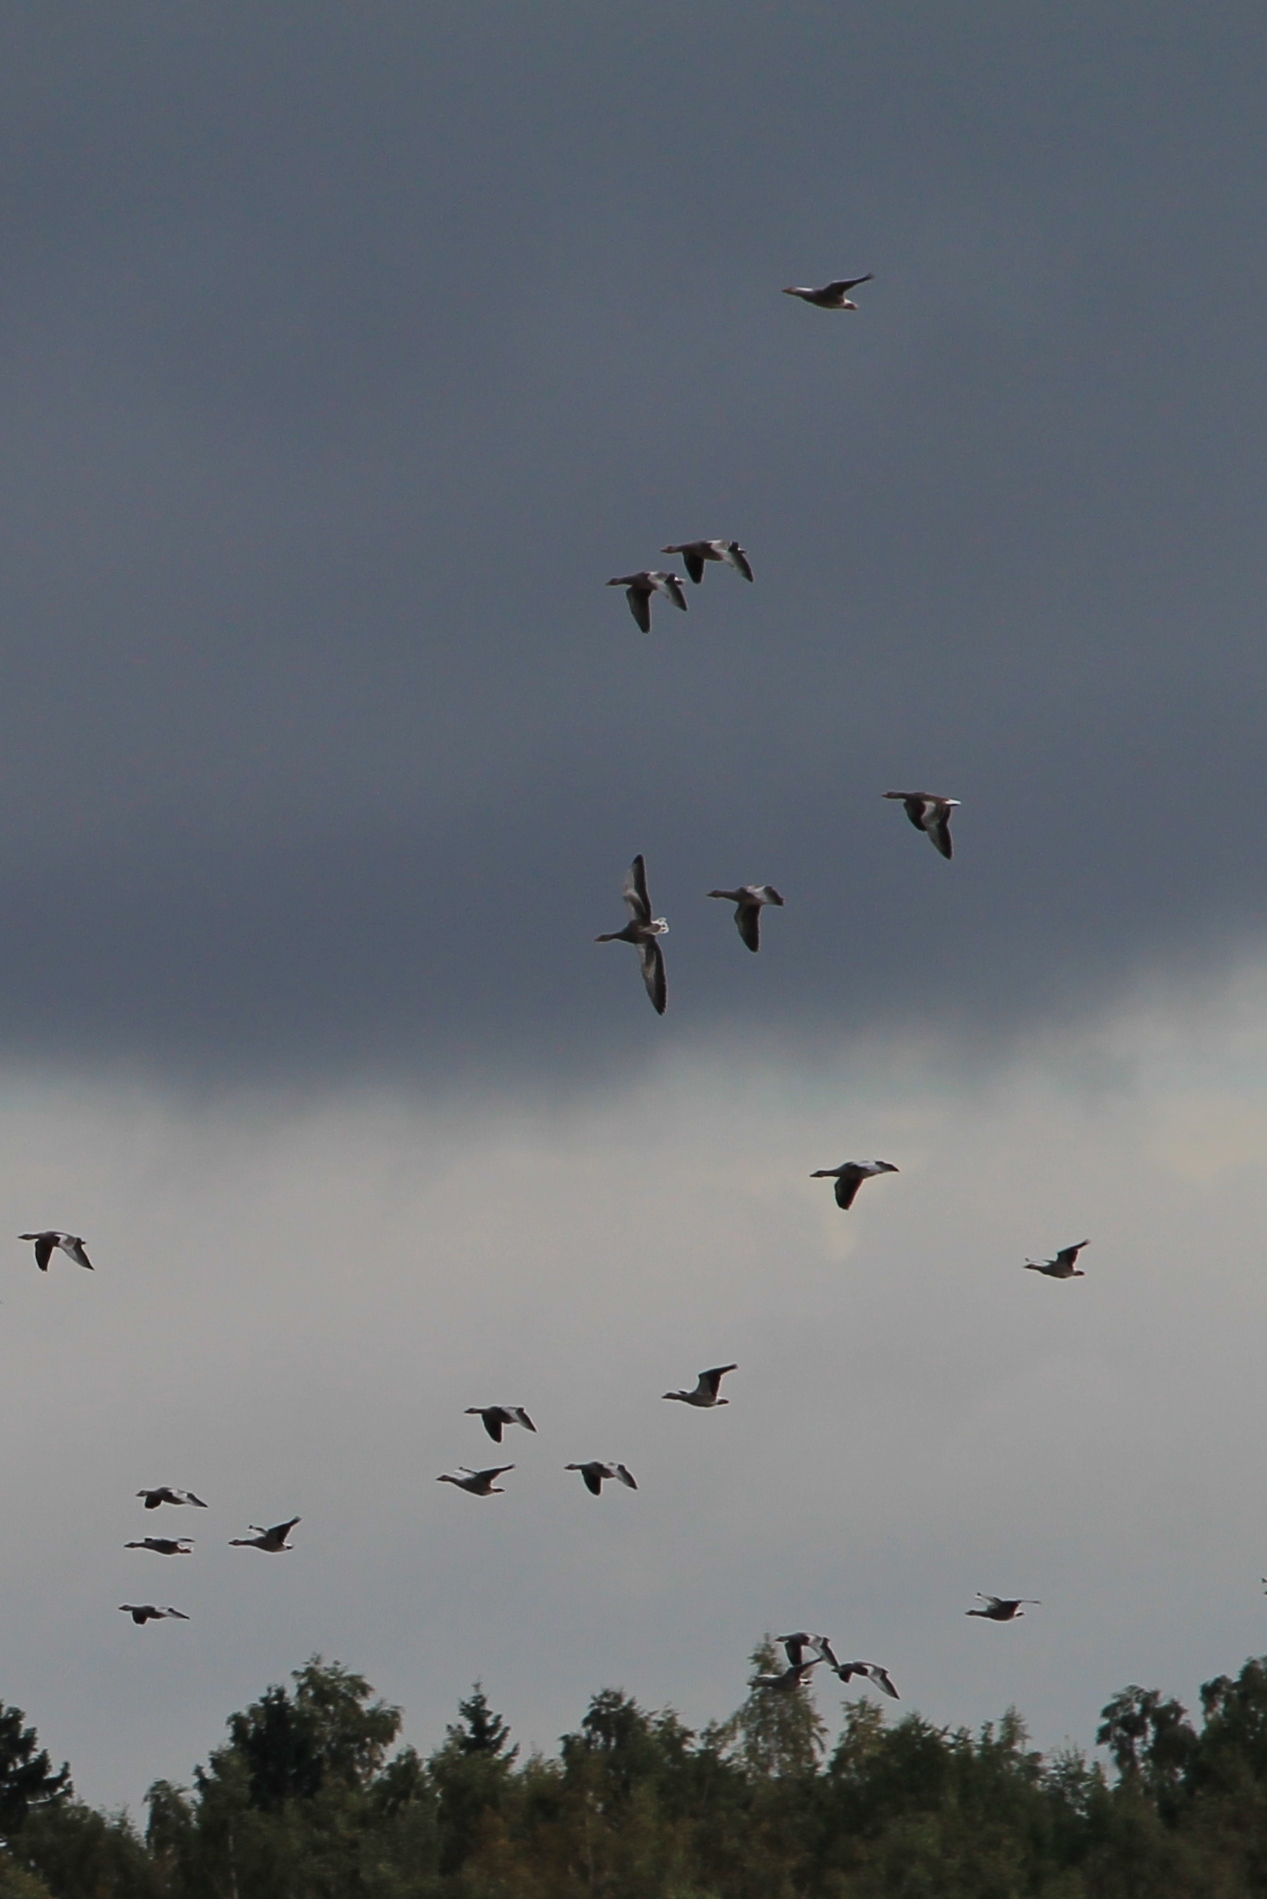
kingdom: Animalia
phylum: Chordata
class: Aves
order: Anseriformes
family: Anatidae
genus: Anser
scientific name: Anser anser
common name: Greylag goose
